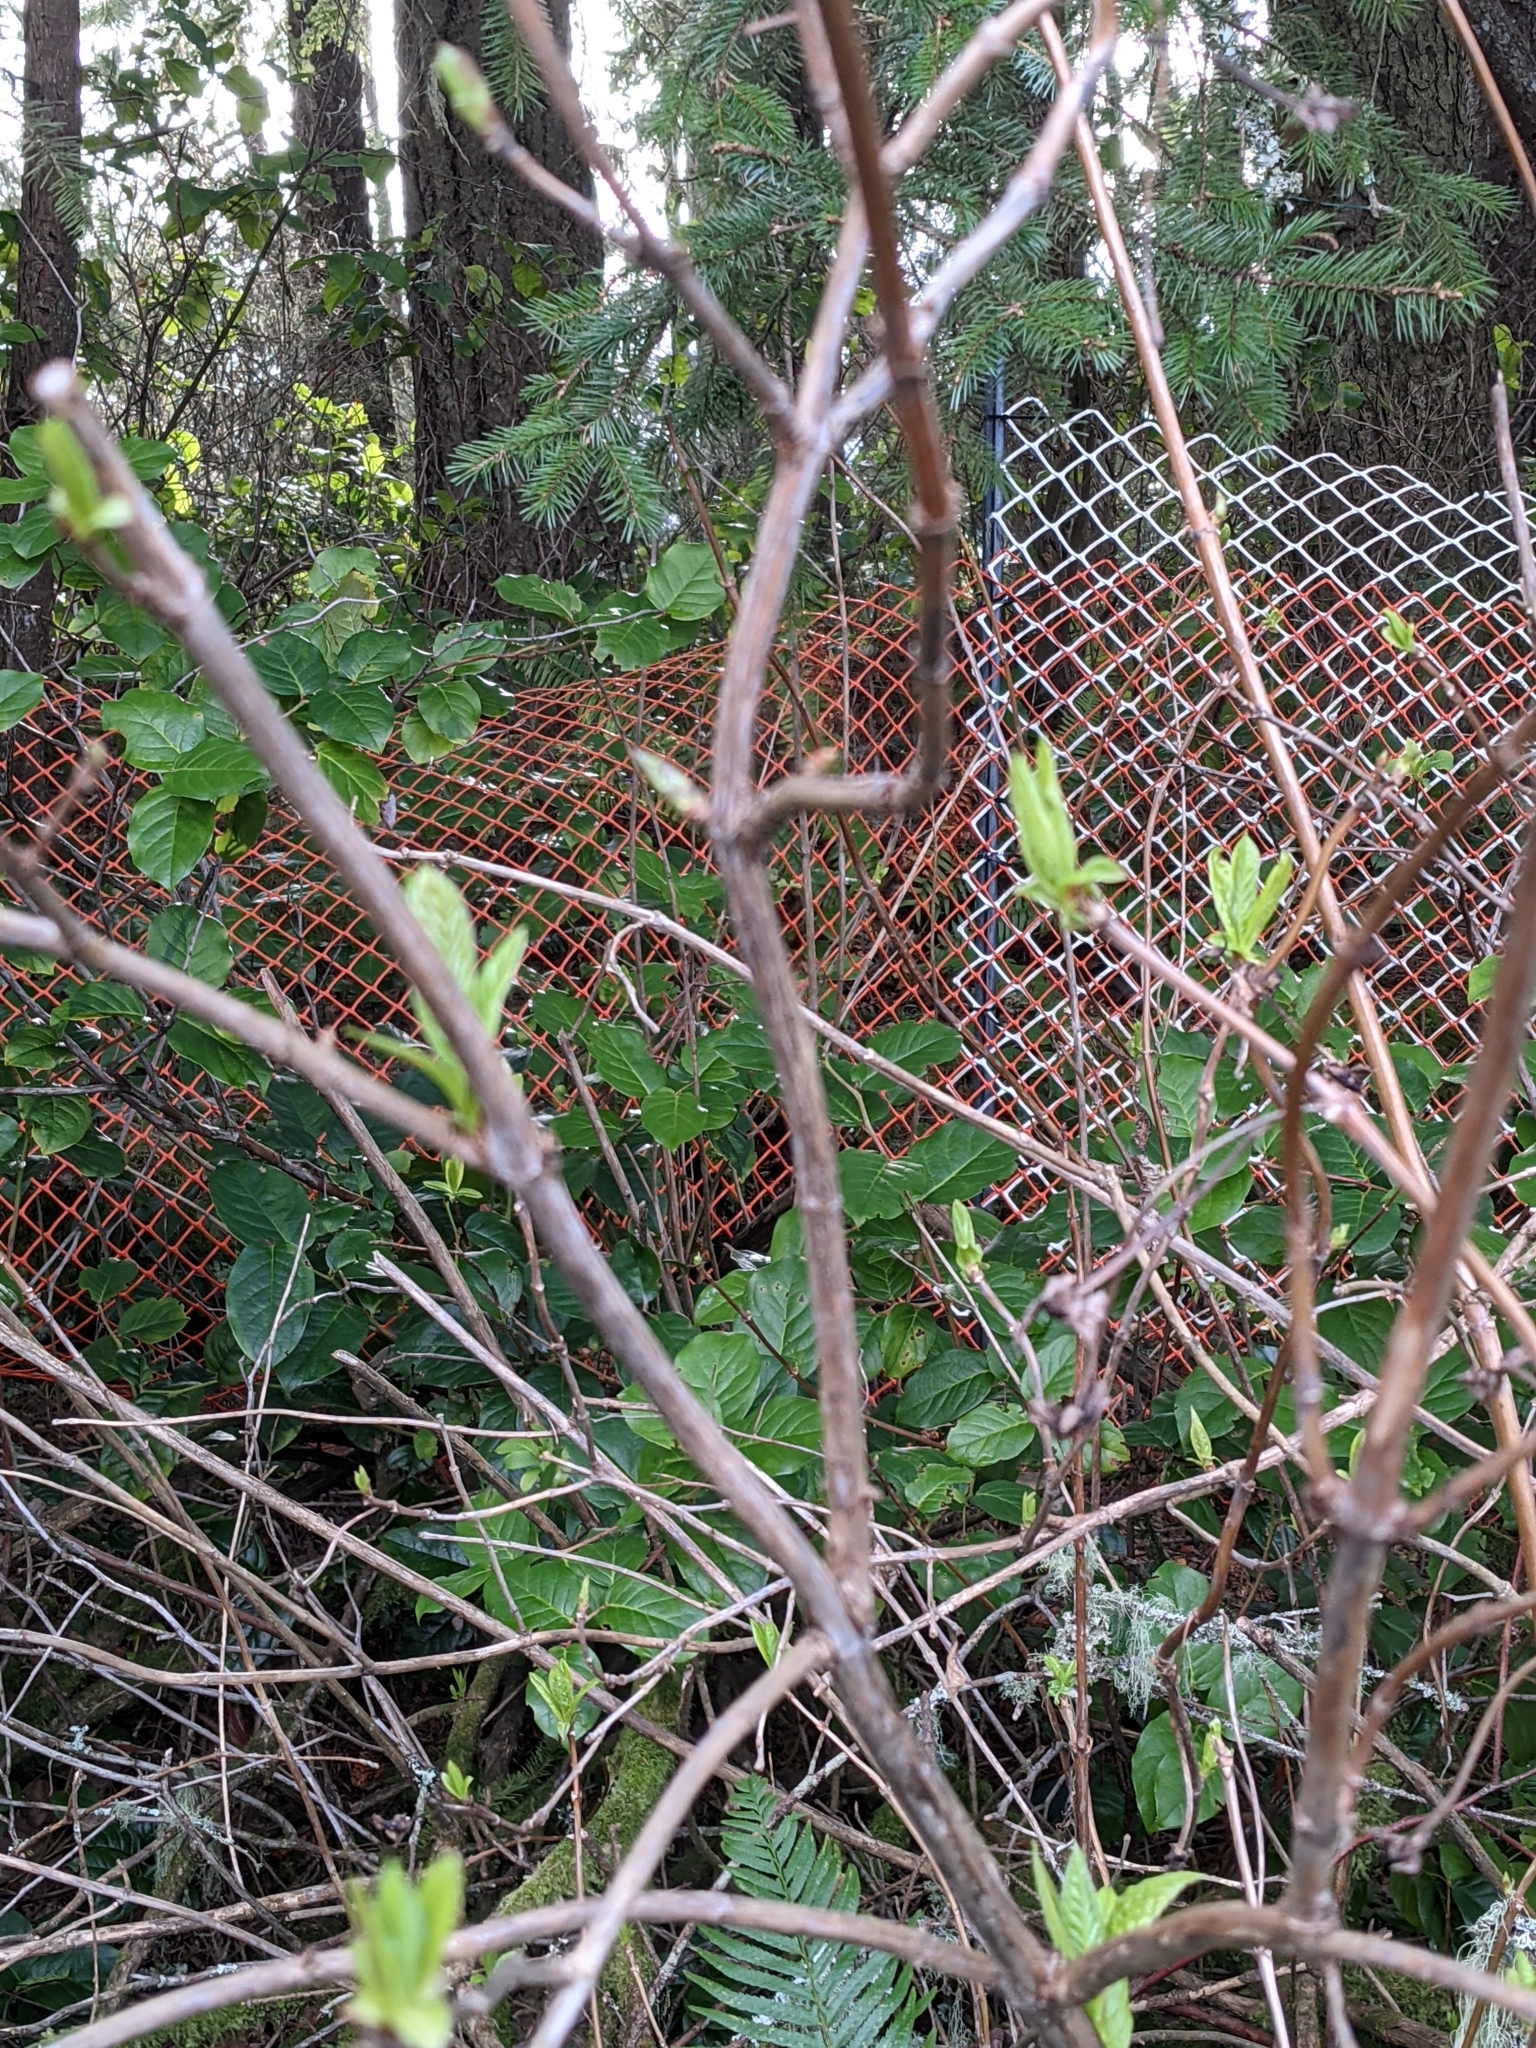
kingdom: Plantae
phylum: Tracheophyta
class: Magnoliopsida
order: Dipsacales
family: Caprifoliaceae
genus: Lonicera
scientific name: Lonicera involucrata
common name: Californian honeysuckle
